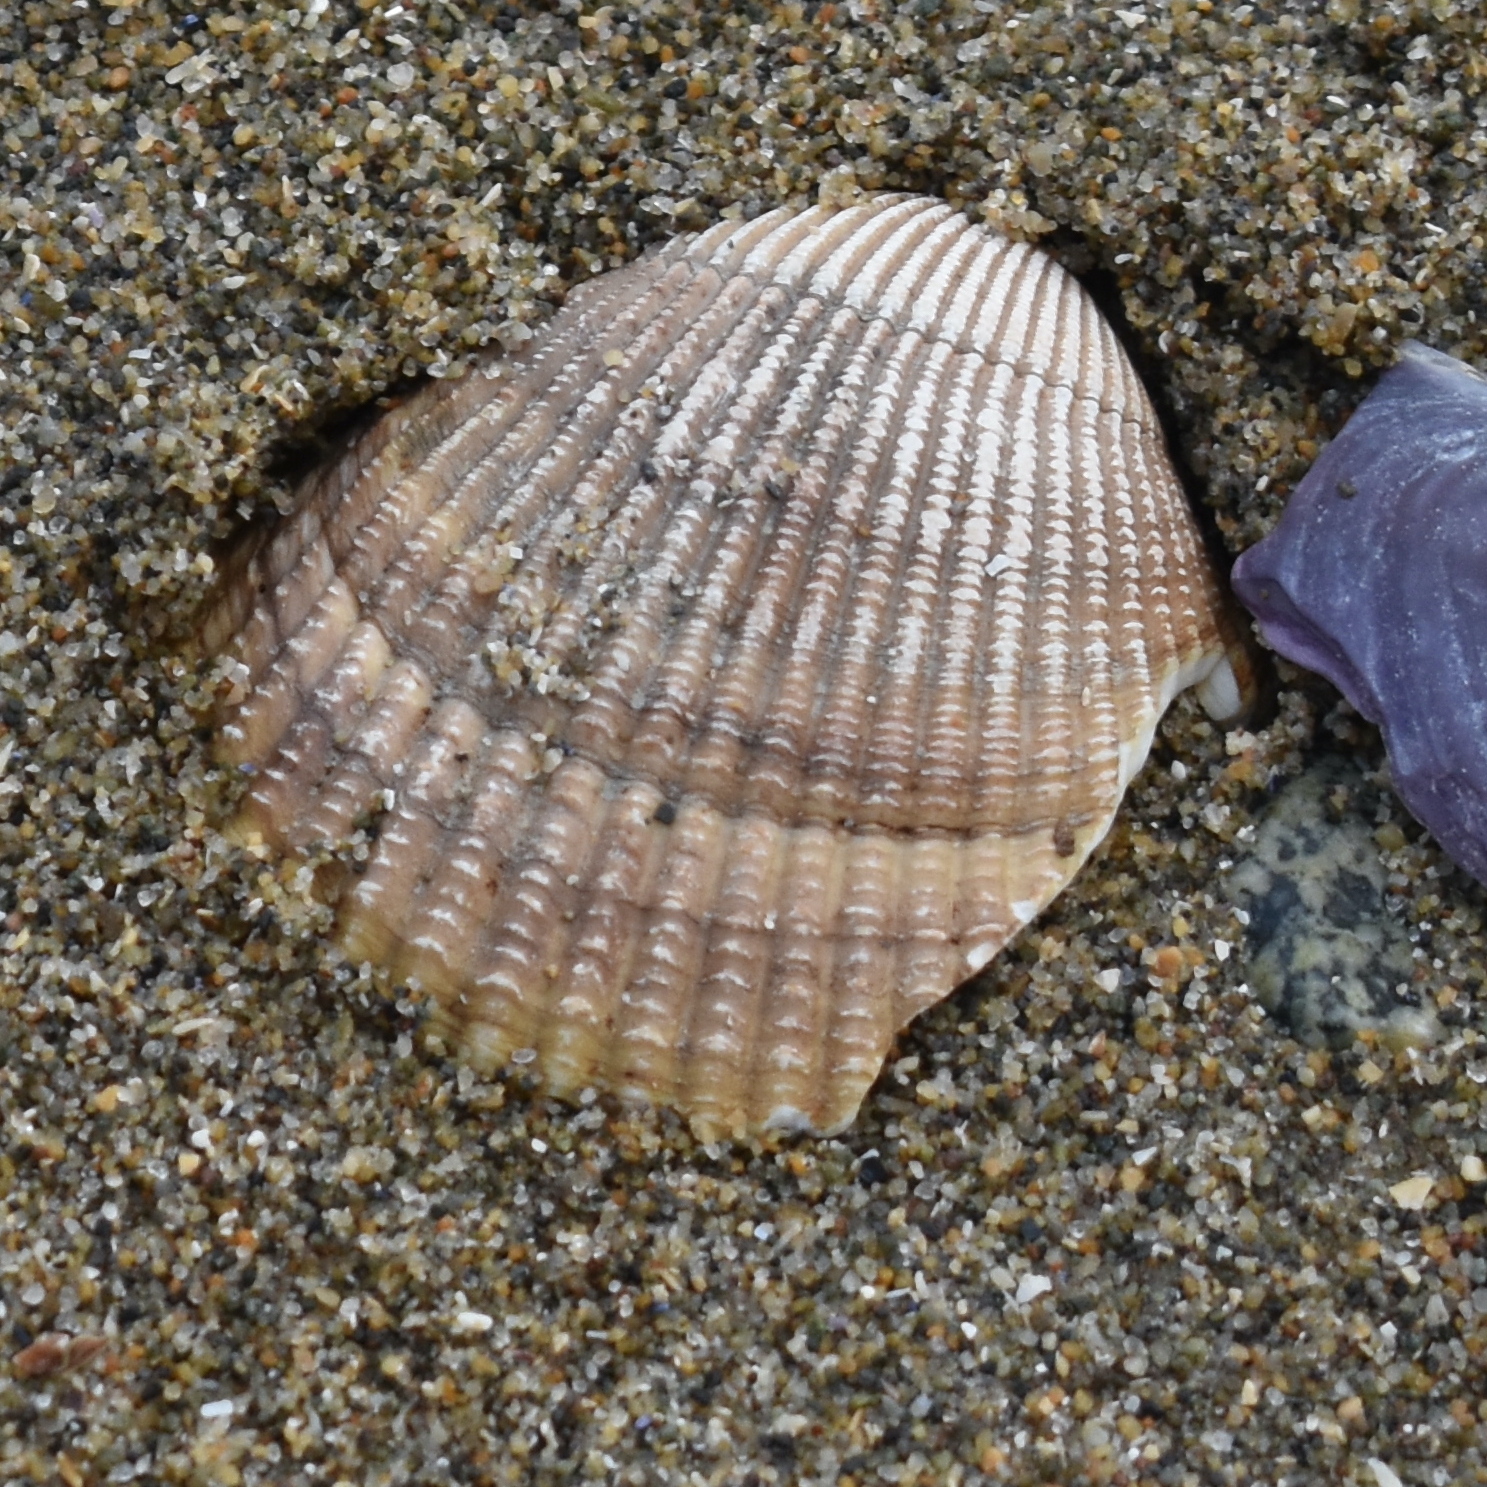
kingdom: Animalia
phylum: Mollusca
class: Bivalvia
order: Cardiida
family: Cardiidae
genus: Clinocardium
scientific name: Clinocardium nuttallii
